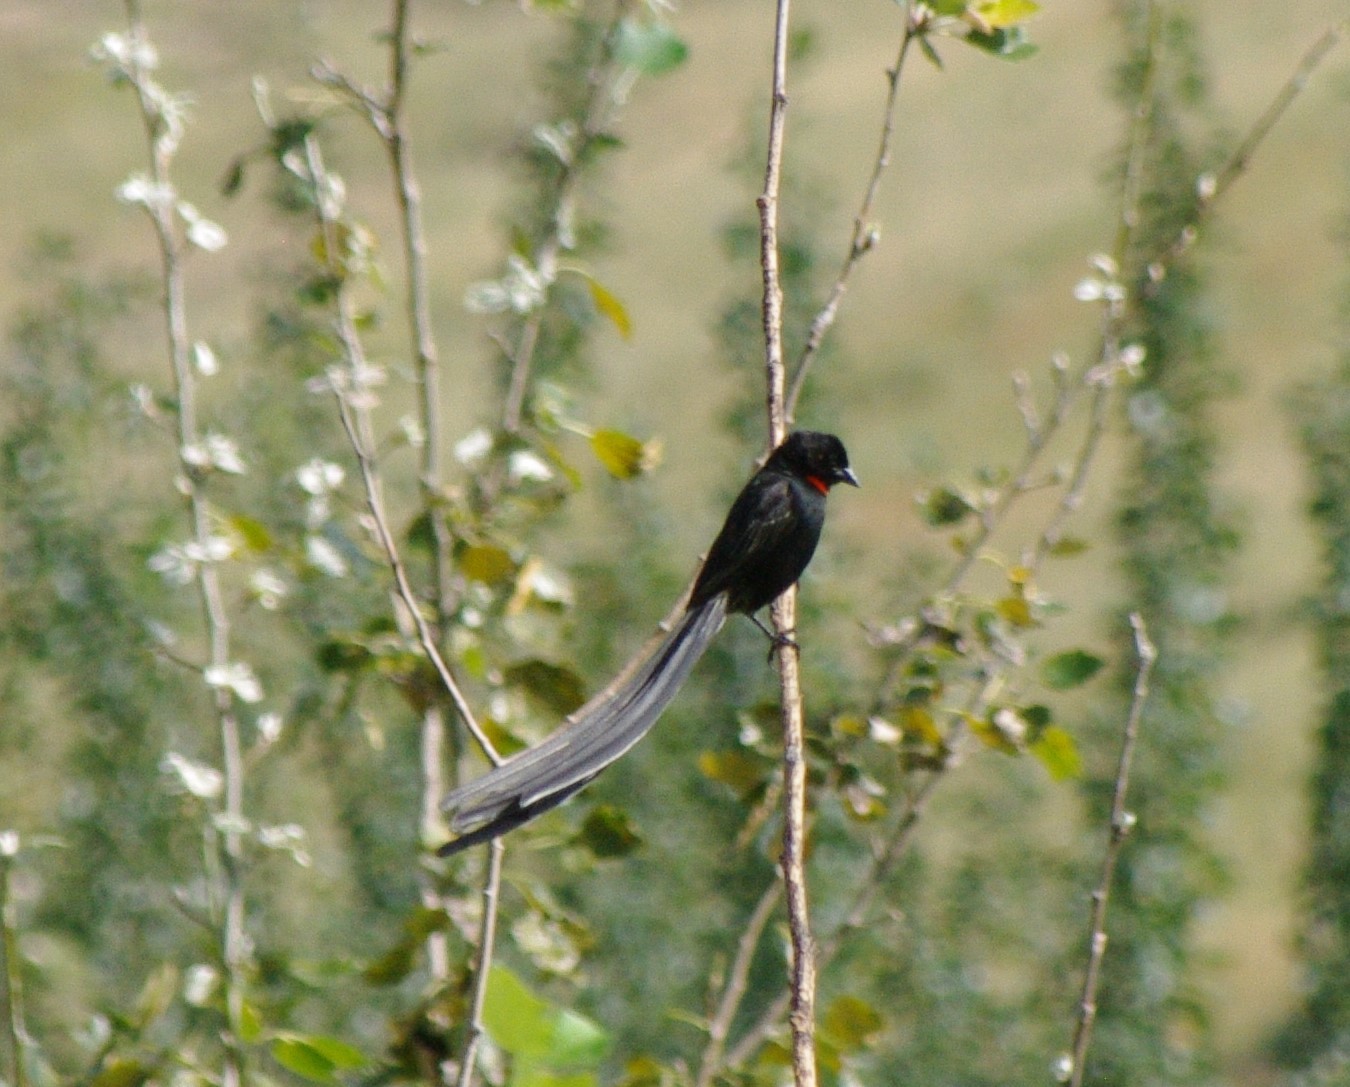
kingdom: Animalia
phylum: Chordata
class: Aves
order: Passeriformes
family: Ploceidae
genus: Euplectes
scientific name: Euplectes ardens
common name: Red-collared widowbird
